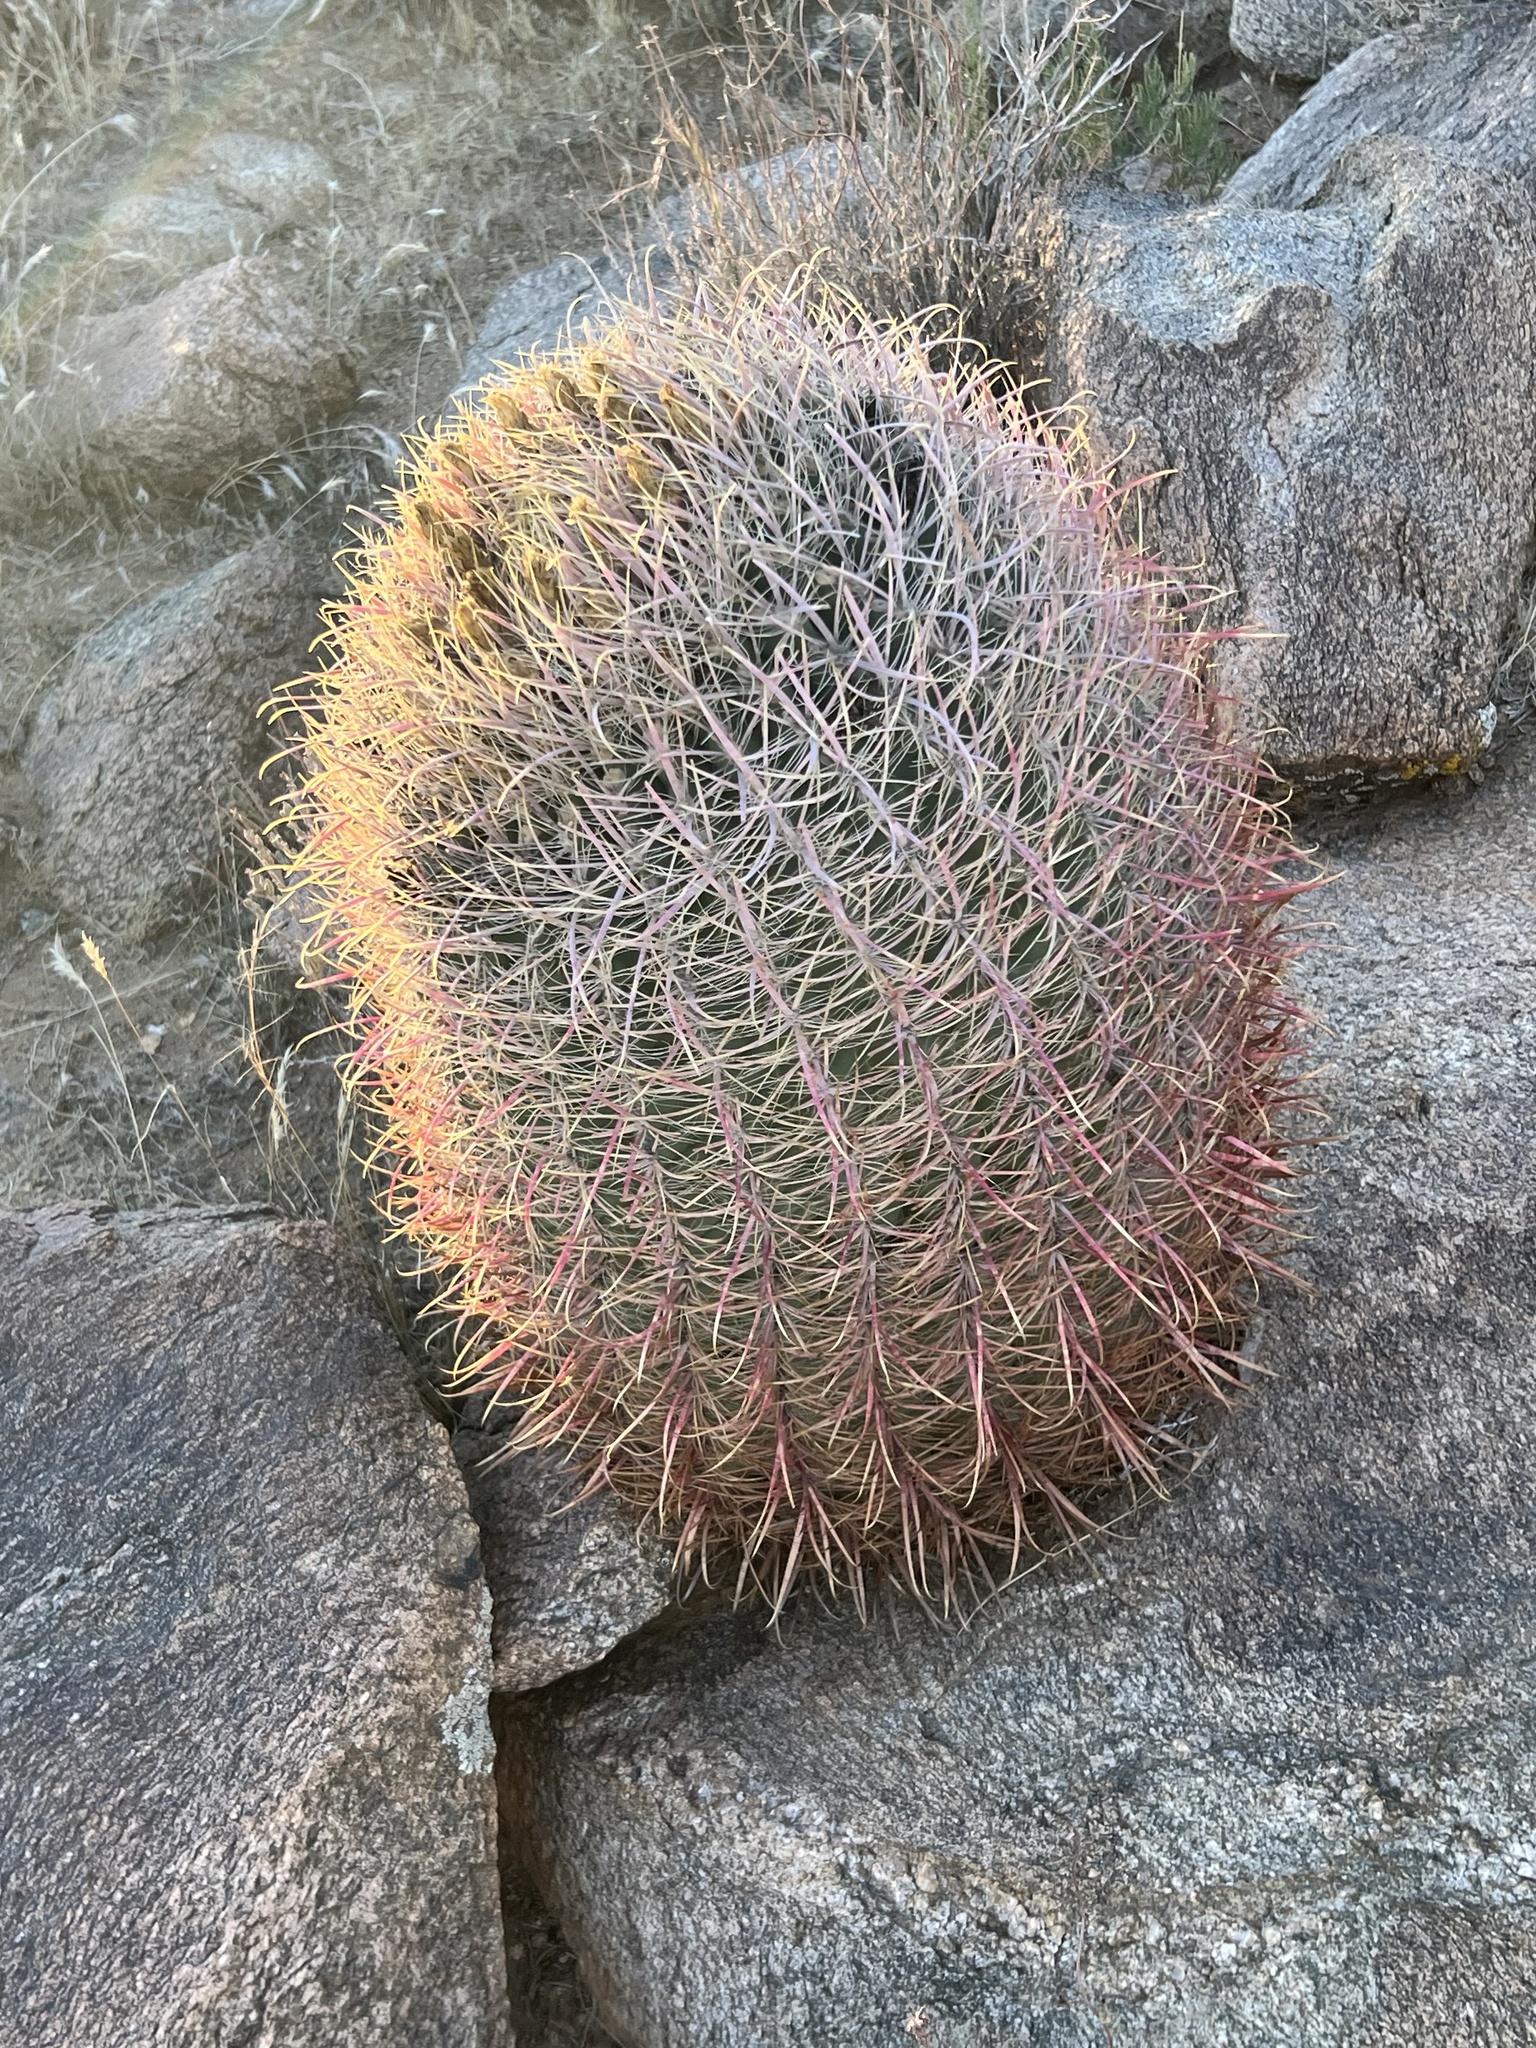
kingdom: Plantae
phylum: Tracheophyta
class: Magnoliopsida
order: Caryophyllales
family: Cactaceae
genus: Ferocactus
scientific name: Ferocactus cylindraceus
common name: California barrel cactus
